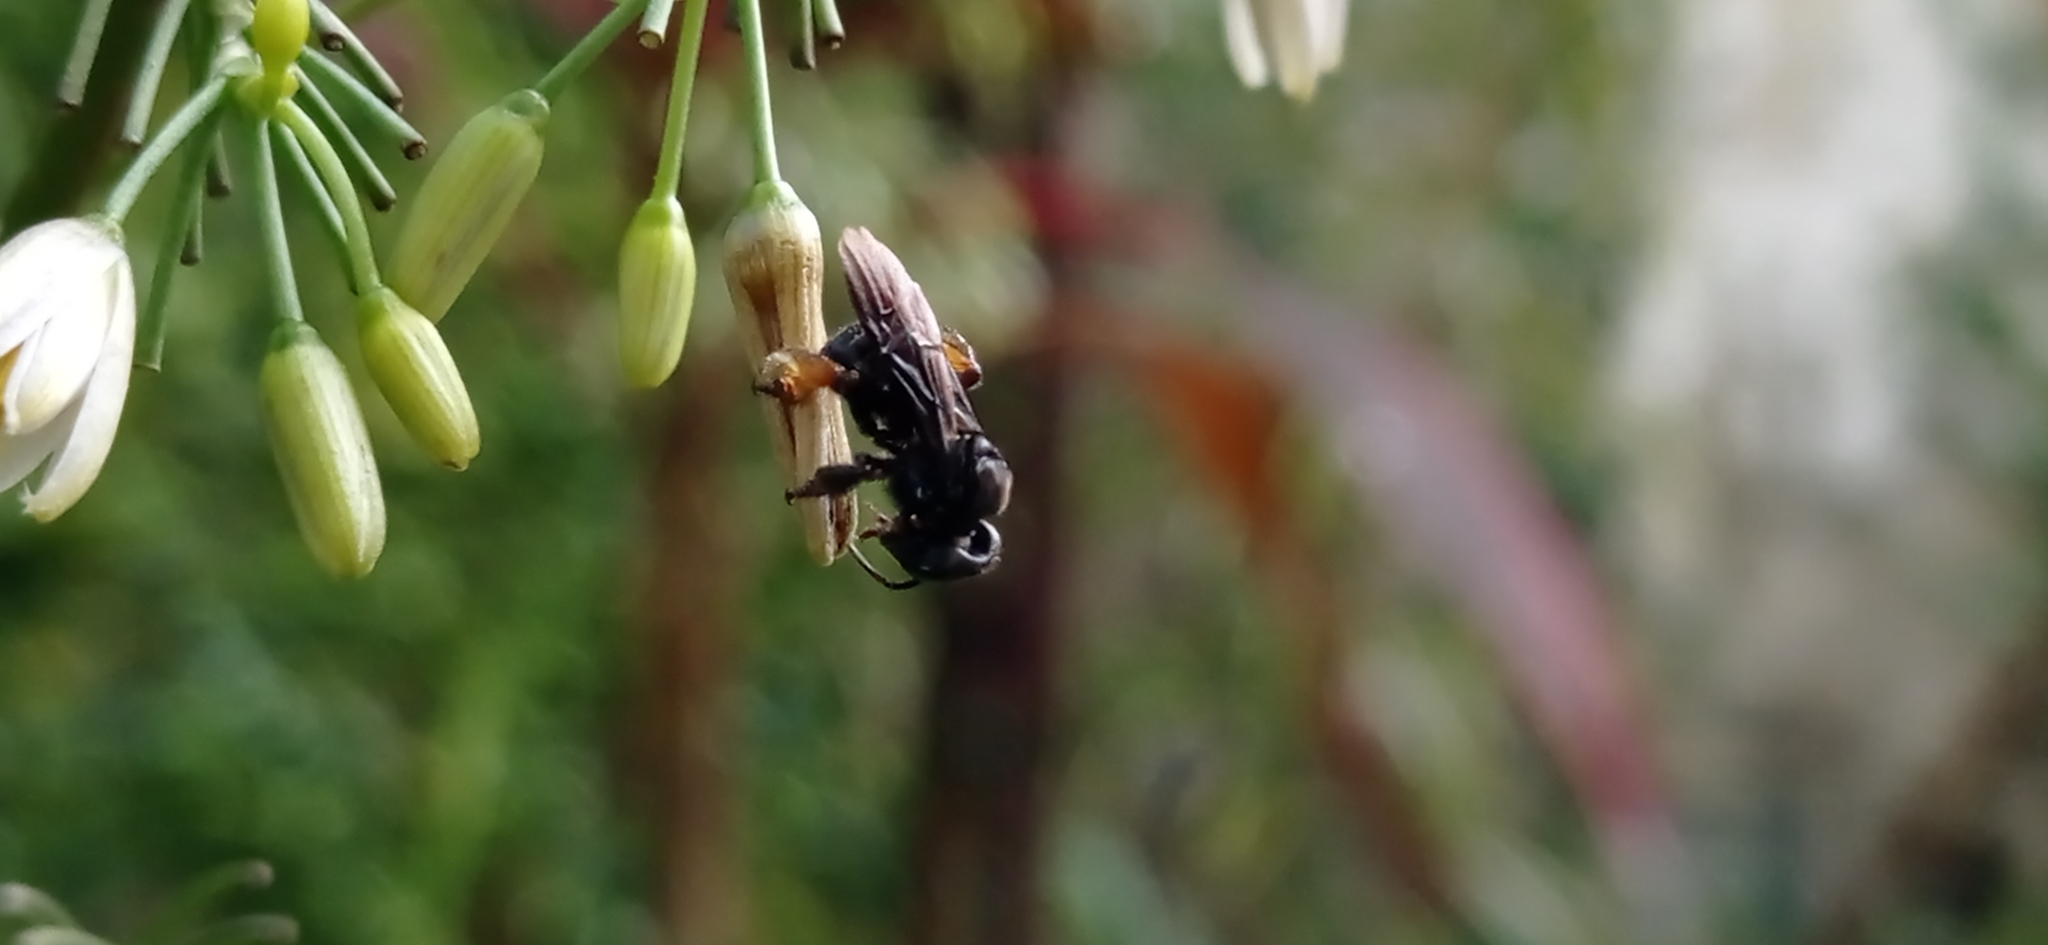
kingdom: Animalia
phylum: Arthropoda
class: Insecta
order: Hymenoptera
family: Apidae
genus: Trigona
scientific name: Trigona spinipes
